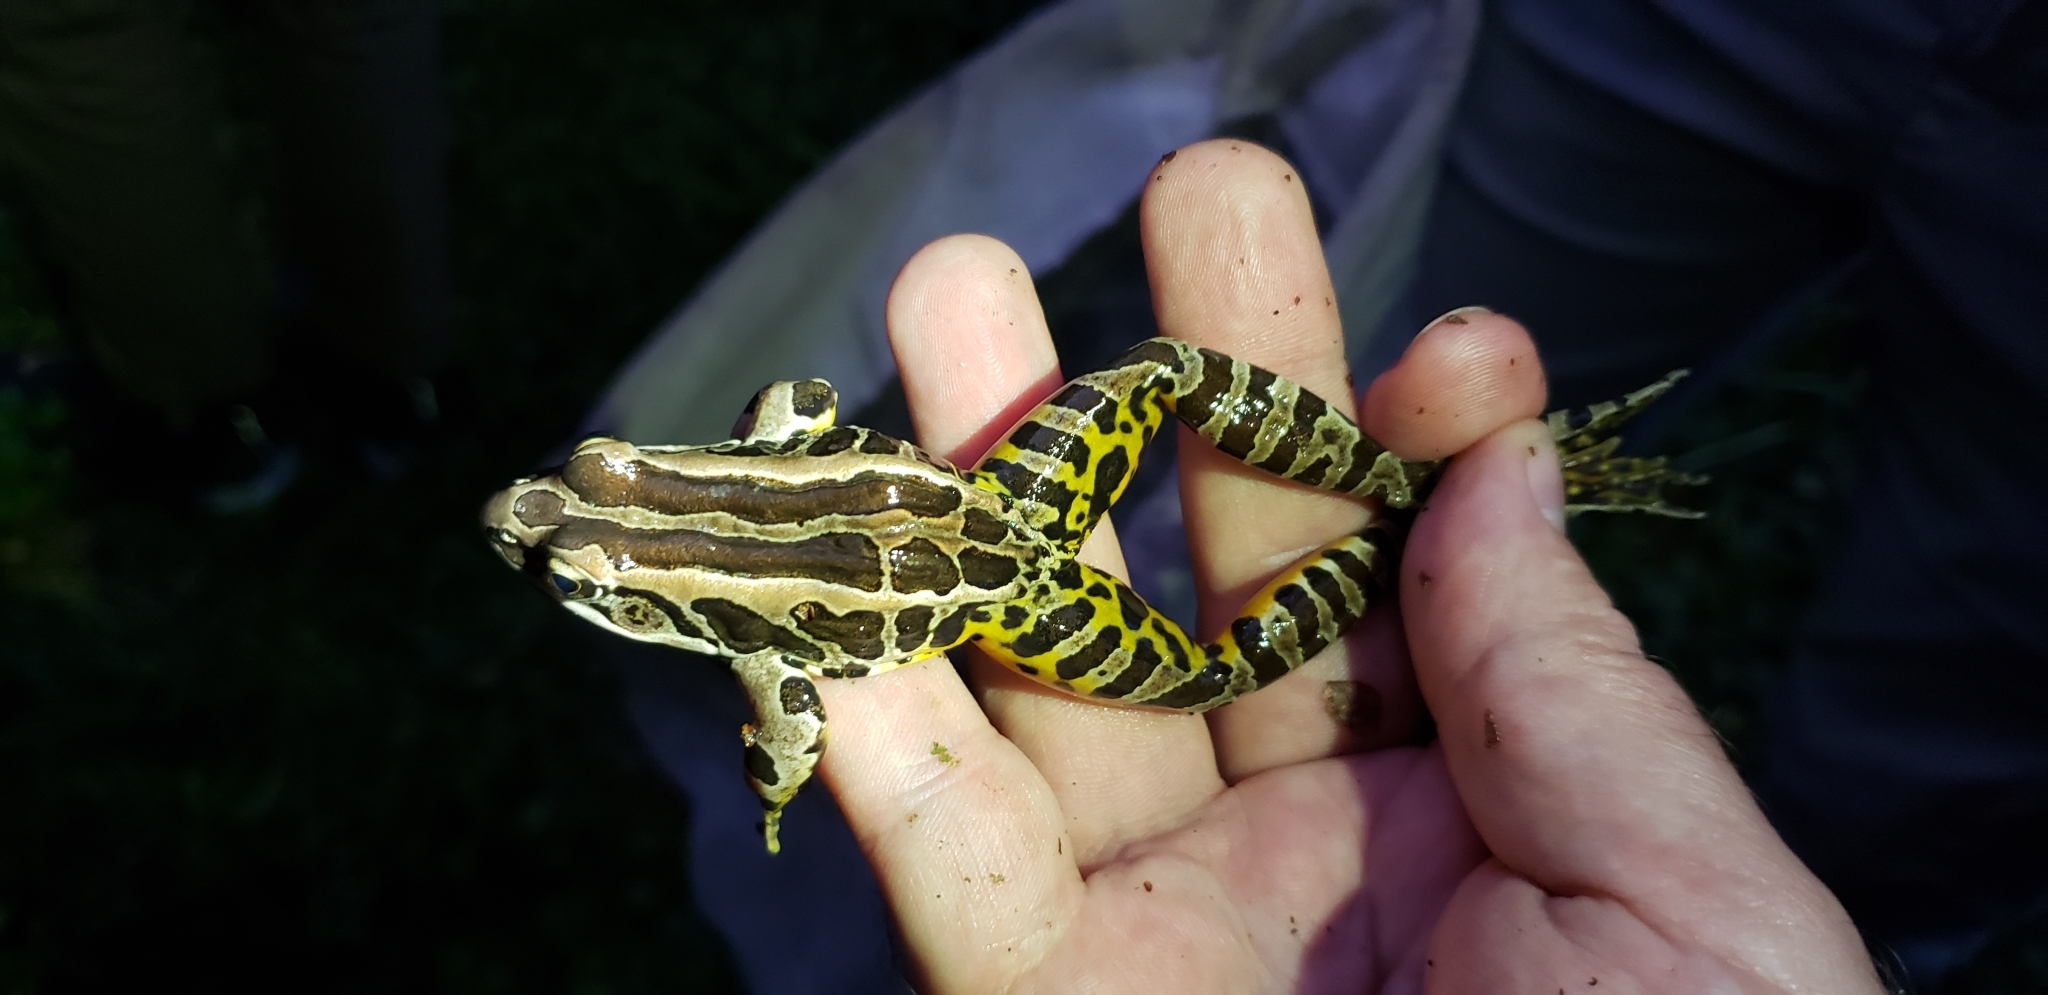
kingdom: Animalia
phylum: Chordata
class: Amphibia
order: Anura
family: Ranidae
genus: Lithobates
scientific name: Lithobates palustris
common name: Pickerel frog
